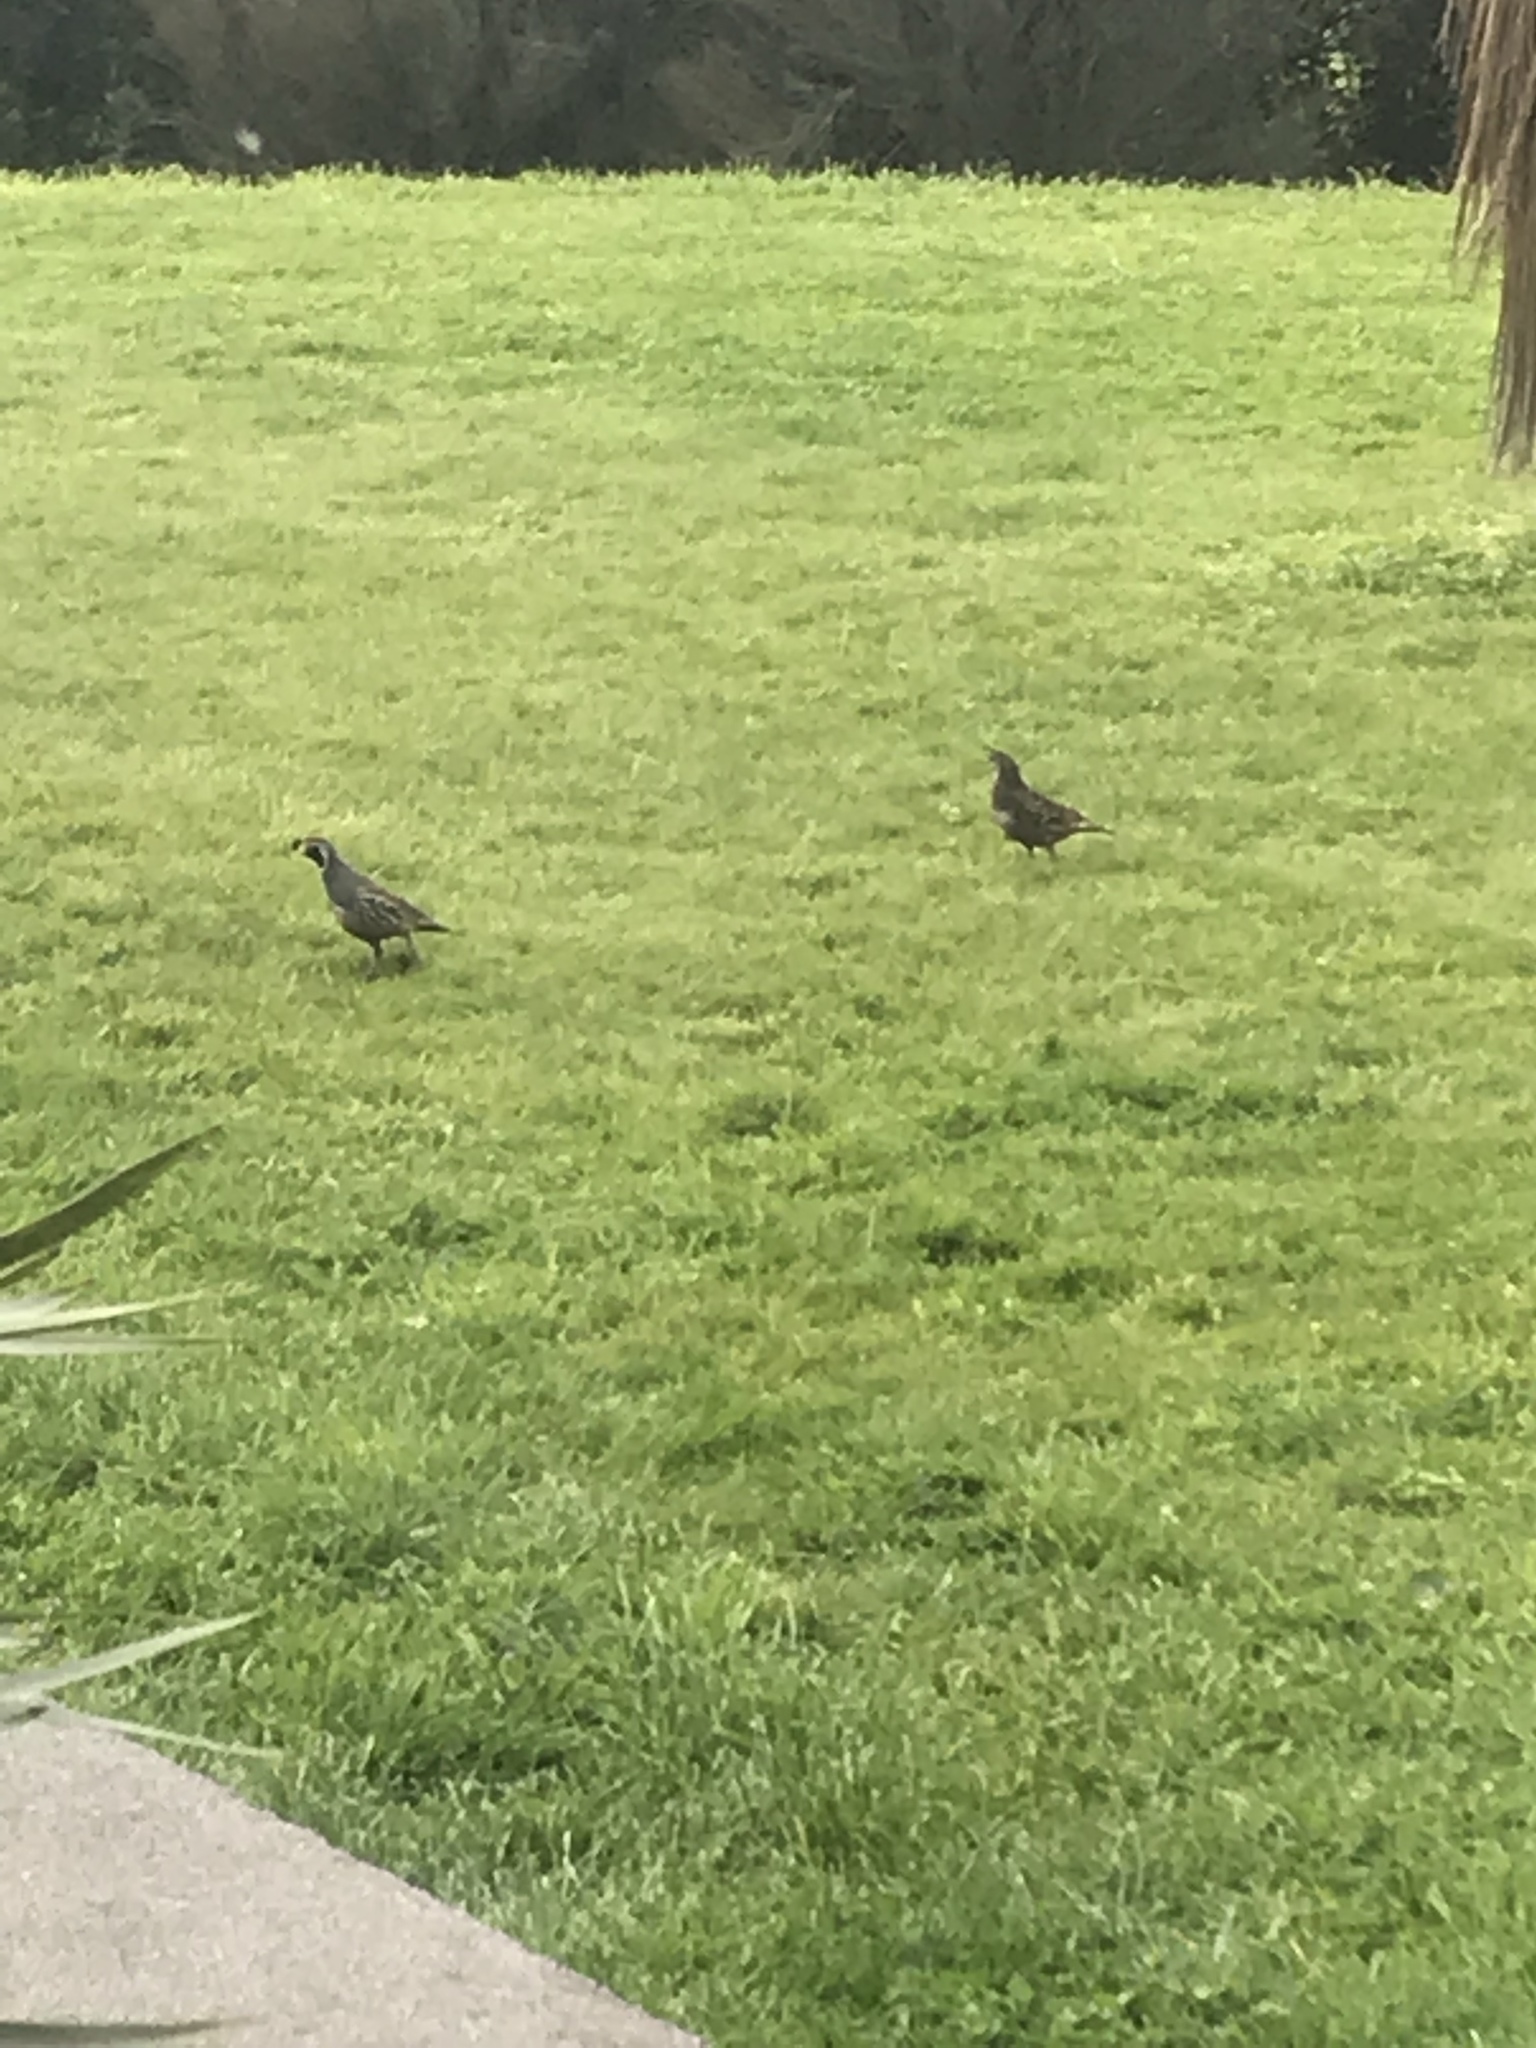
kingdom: Animalia
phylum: Chordata
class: Aves
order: Galliformes
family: Odontophoridae
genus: Callipepla
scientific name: Callipepla californica
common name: California quail
